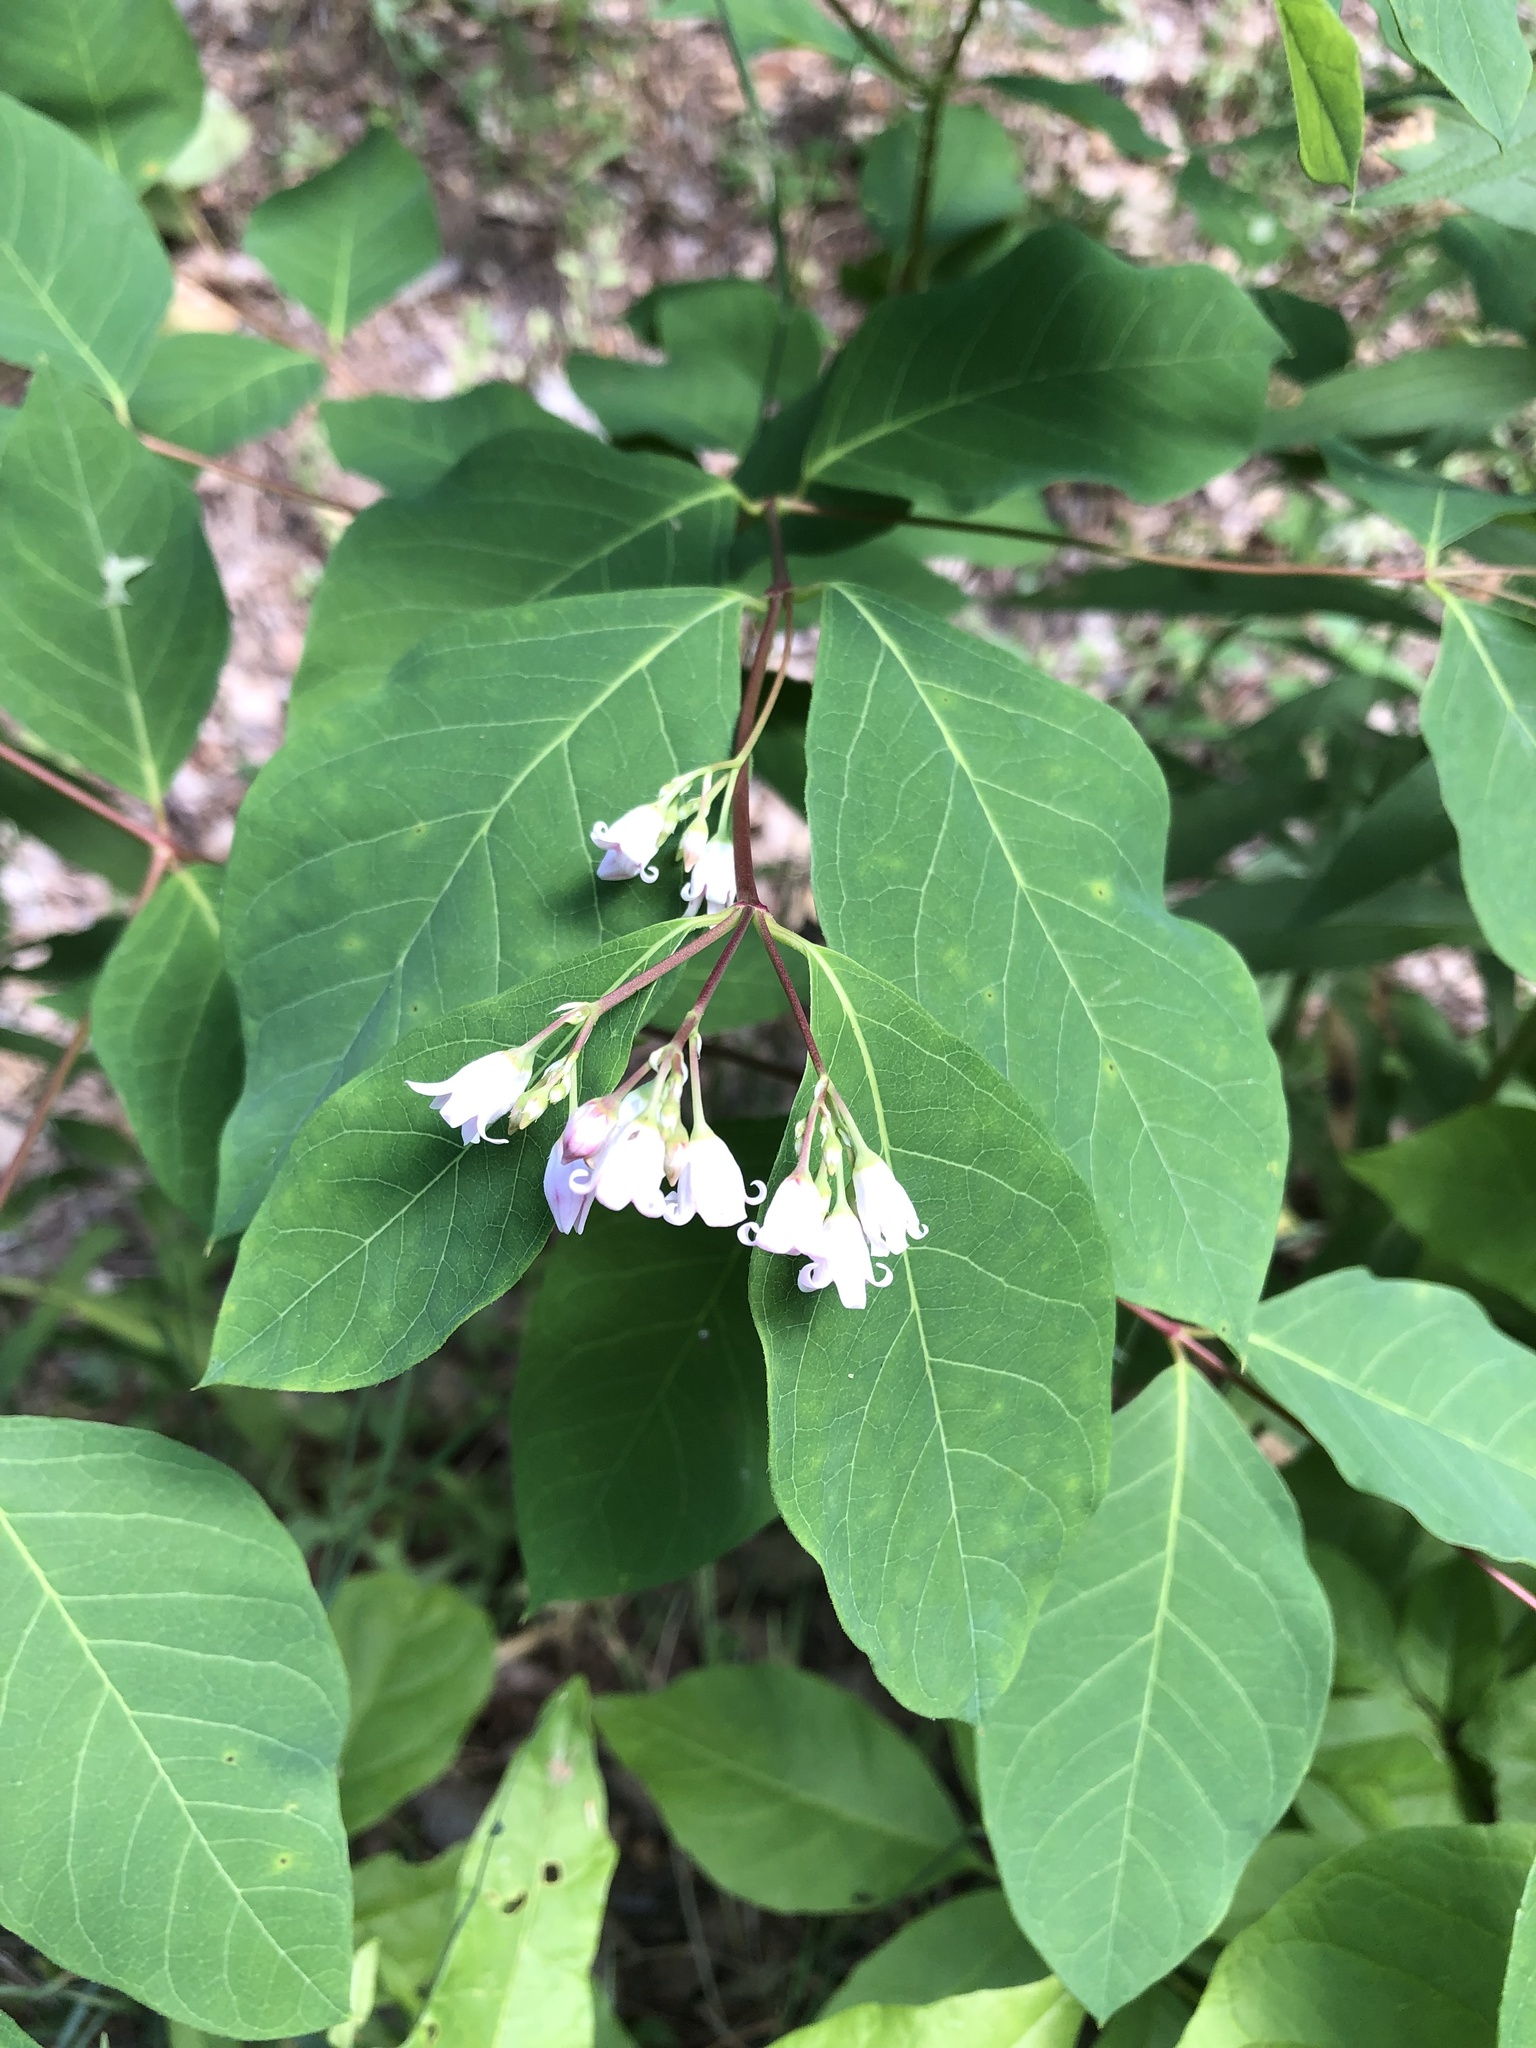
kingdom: Plantae
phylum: Tracheophyta
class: Magnoliopsida
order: Gentianales
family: Apocynaceae
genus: Apocynum
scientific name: Apocynum androsaemifolium
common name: Spreading dogbane
